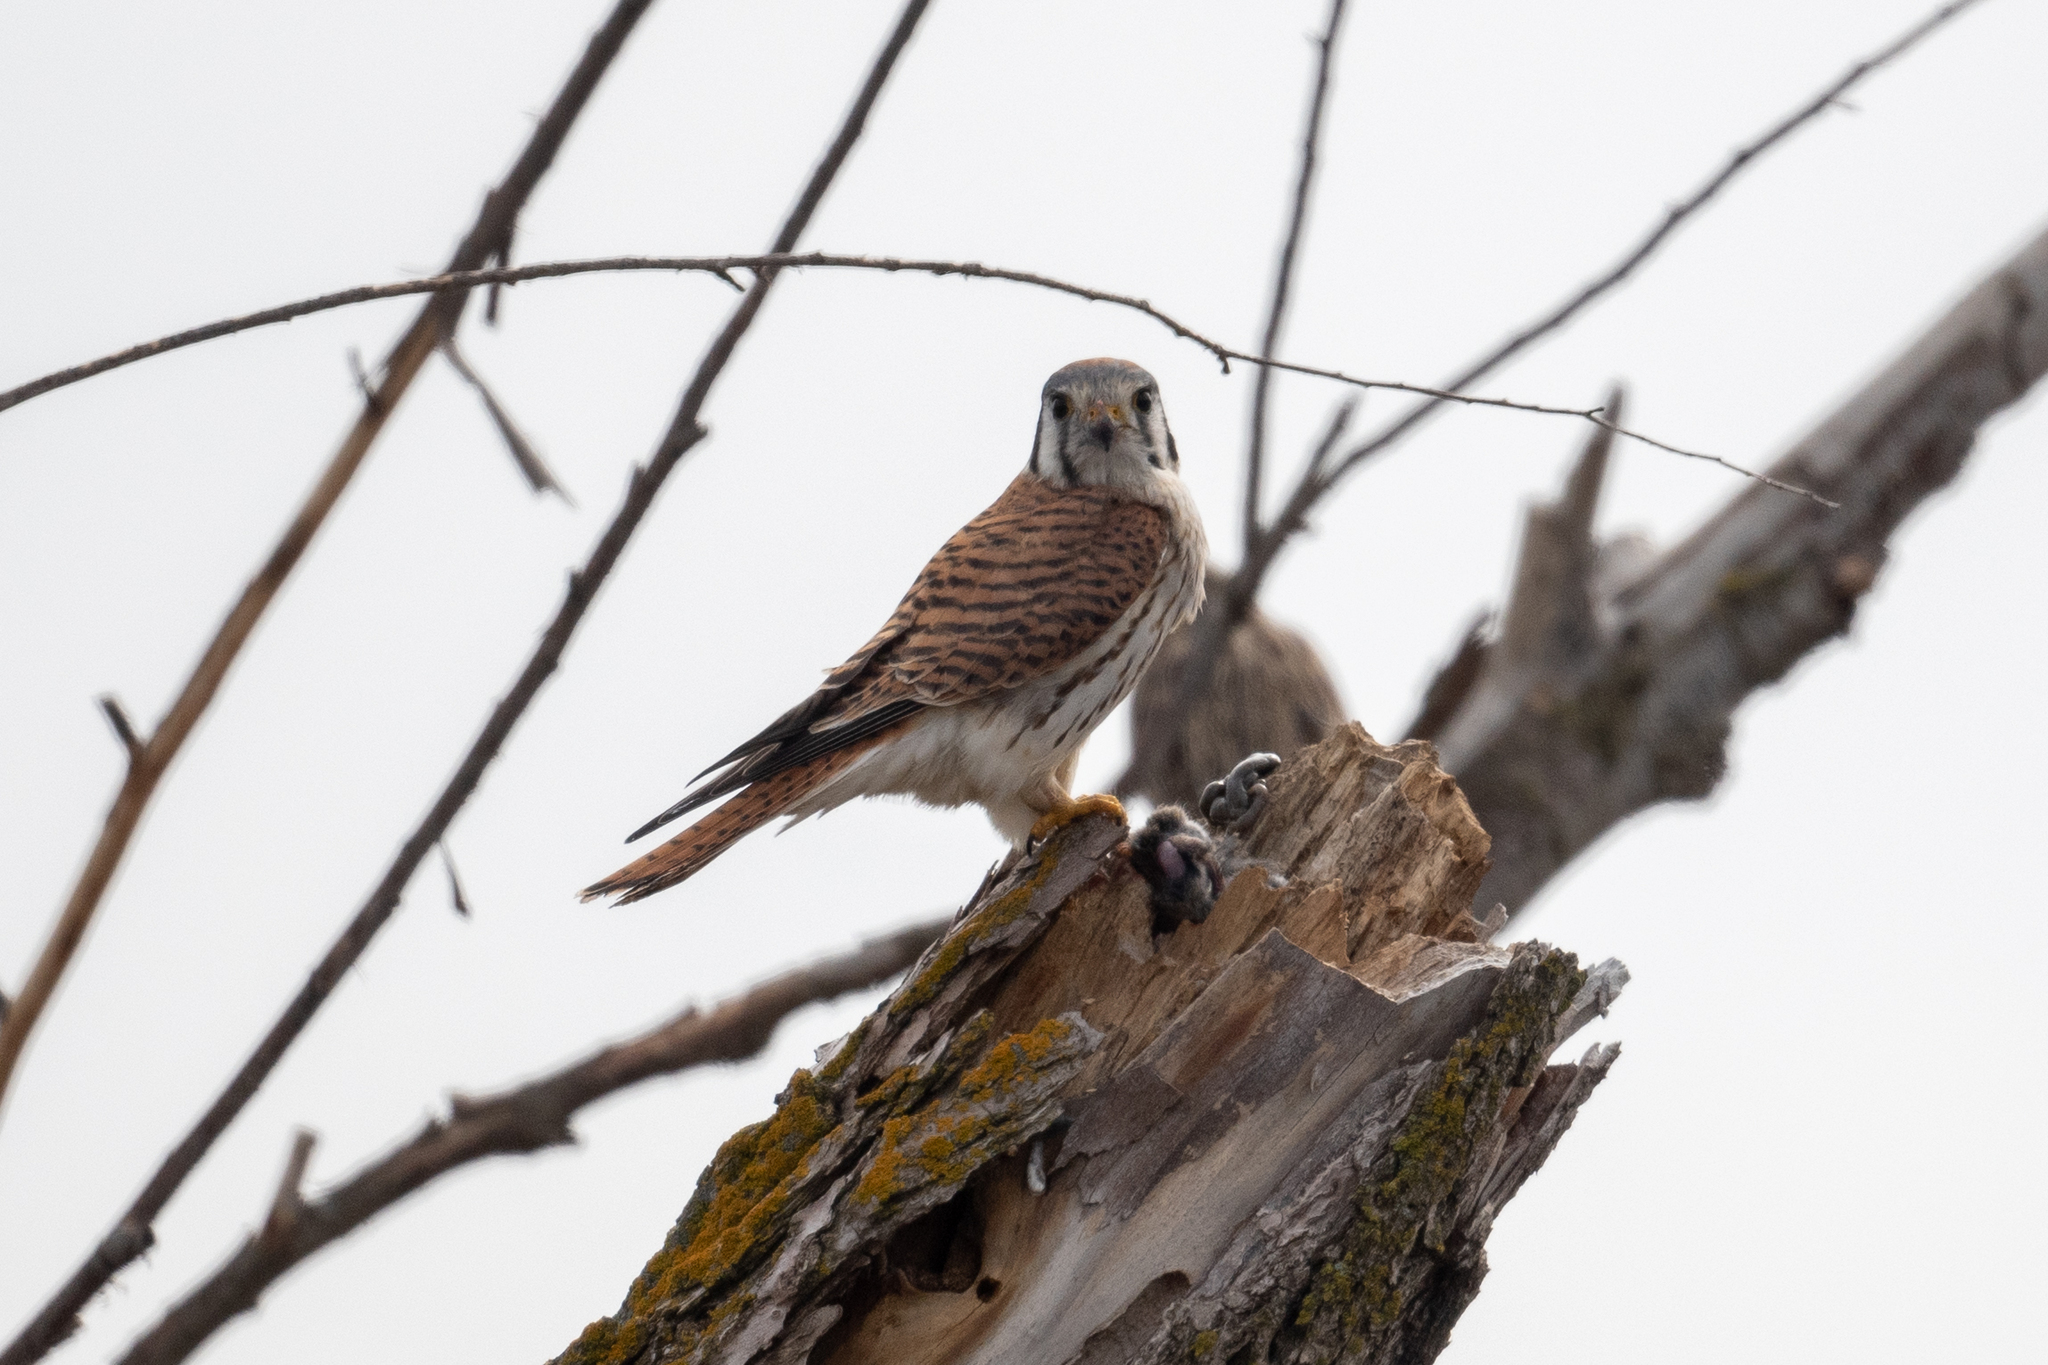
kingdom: Animalia
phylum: Chordata
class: Aves
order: Falconiformes
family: Falconidae
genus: Falco
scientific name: Falco sparverius
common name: American kestrel
